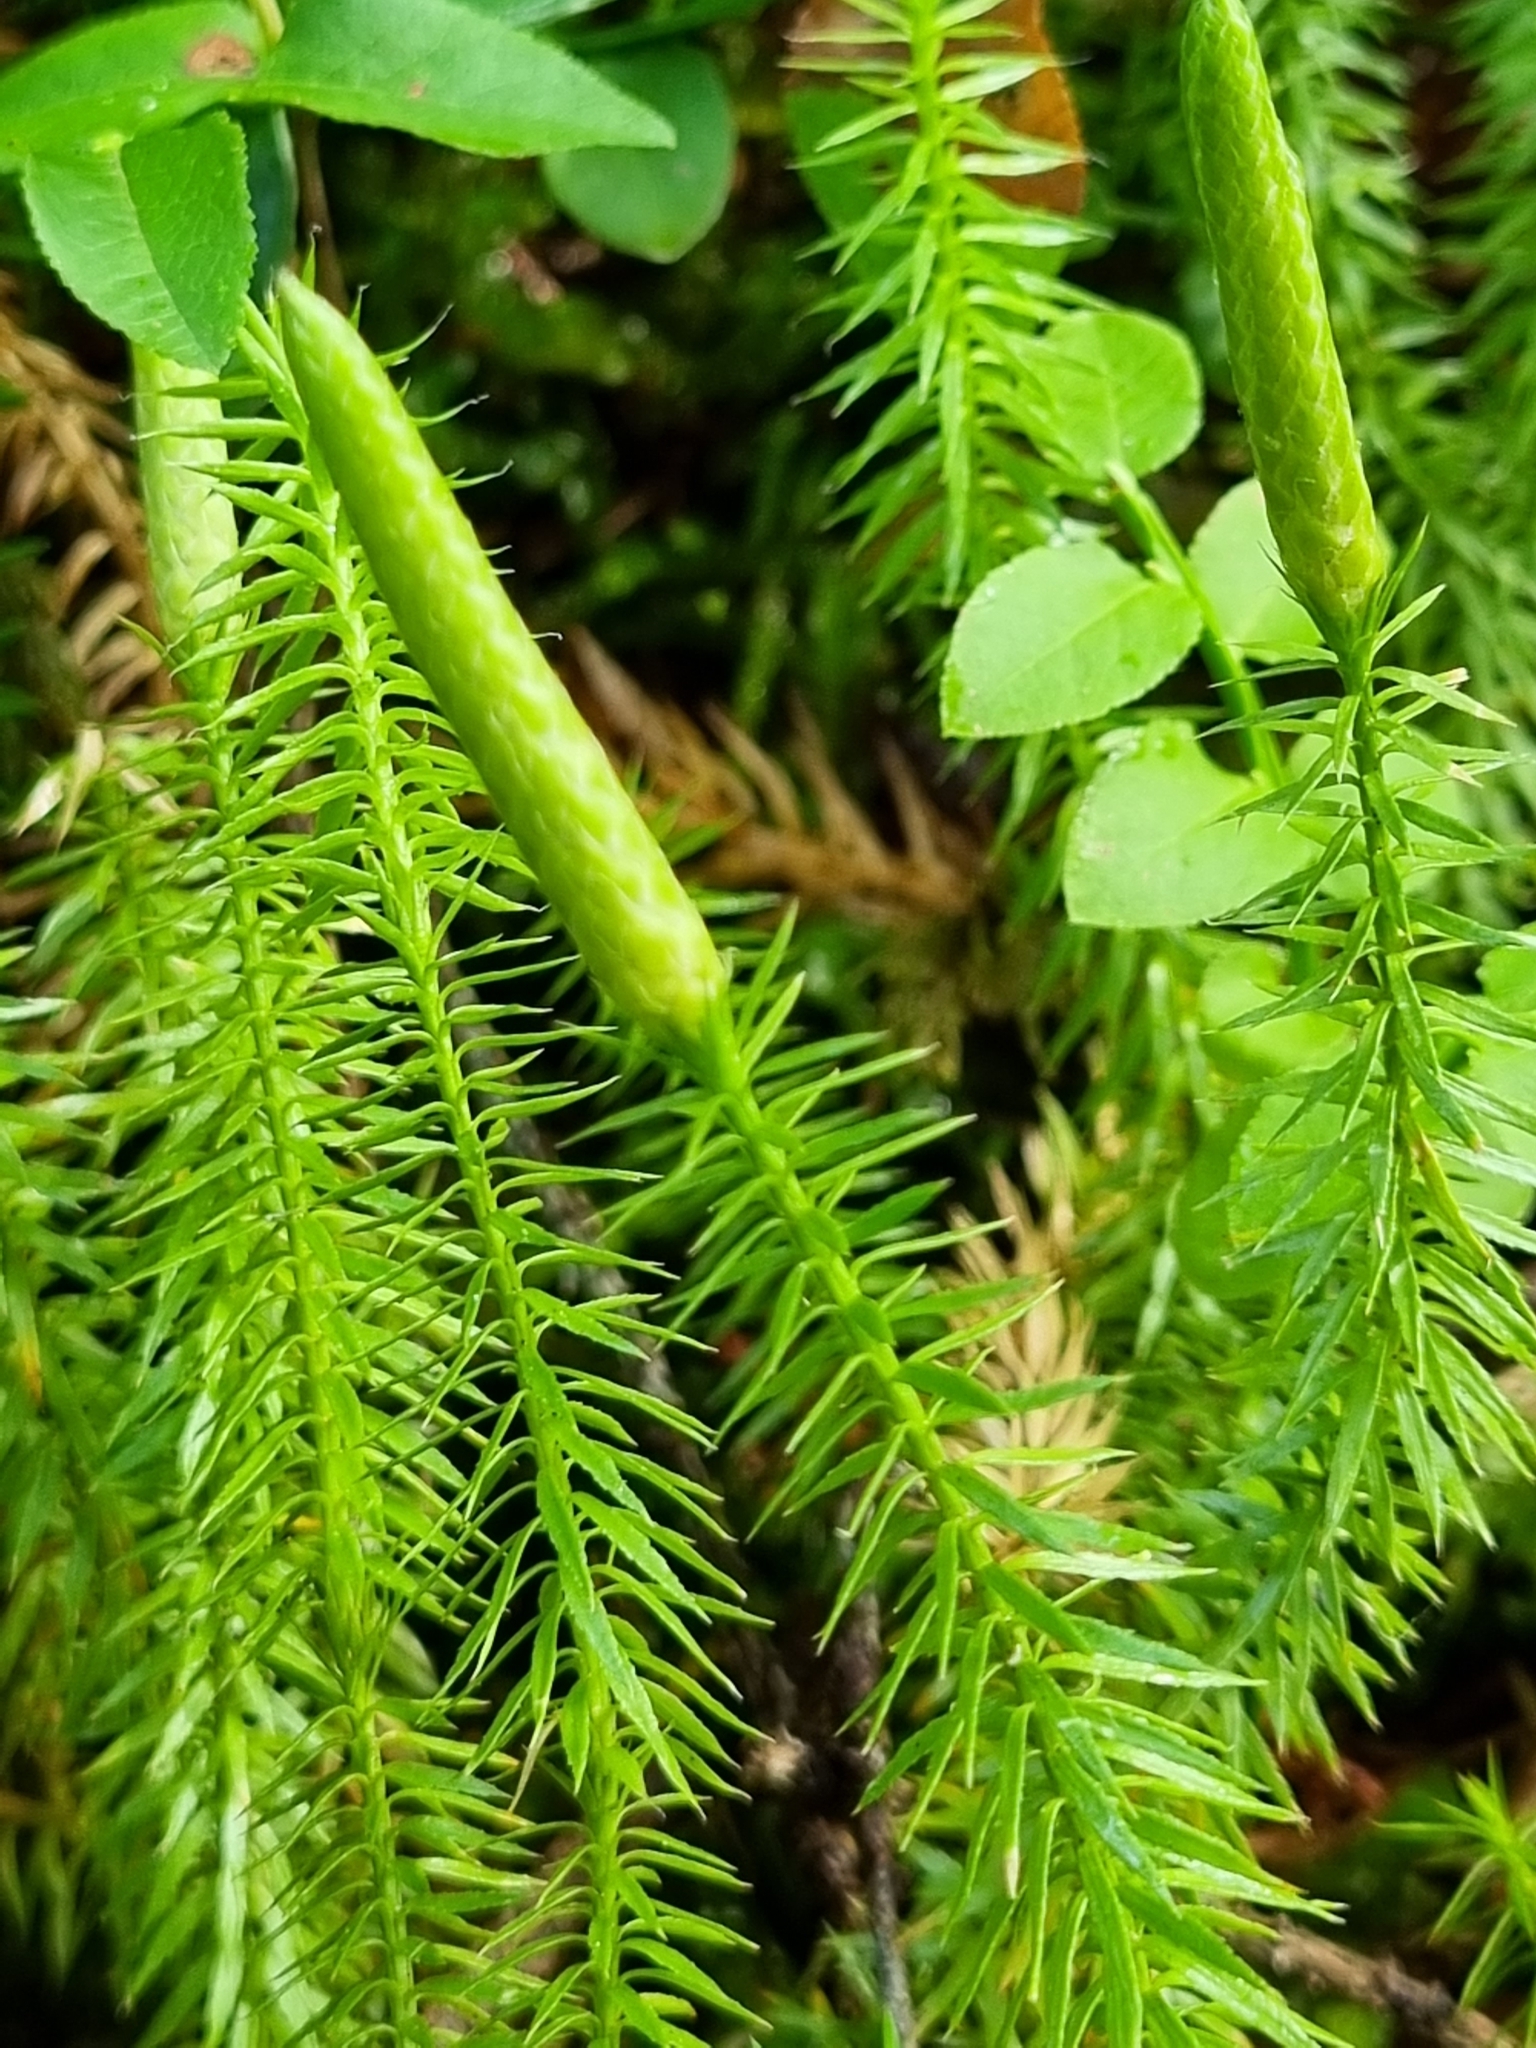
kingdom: Plantae
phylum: Tracheophyta
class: Lycopodiopsida
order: Lycopodiales
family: Lycopodiaceae
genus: Spinulum
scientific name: Spinulum annotinum
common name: Interrupted club-moss
